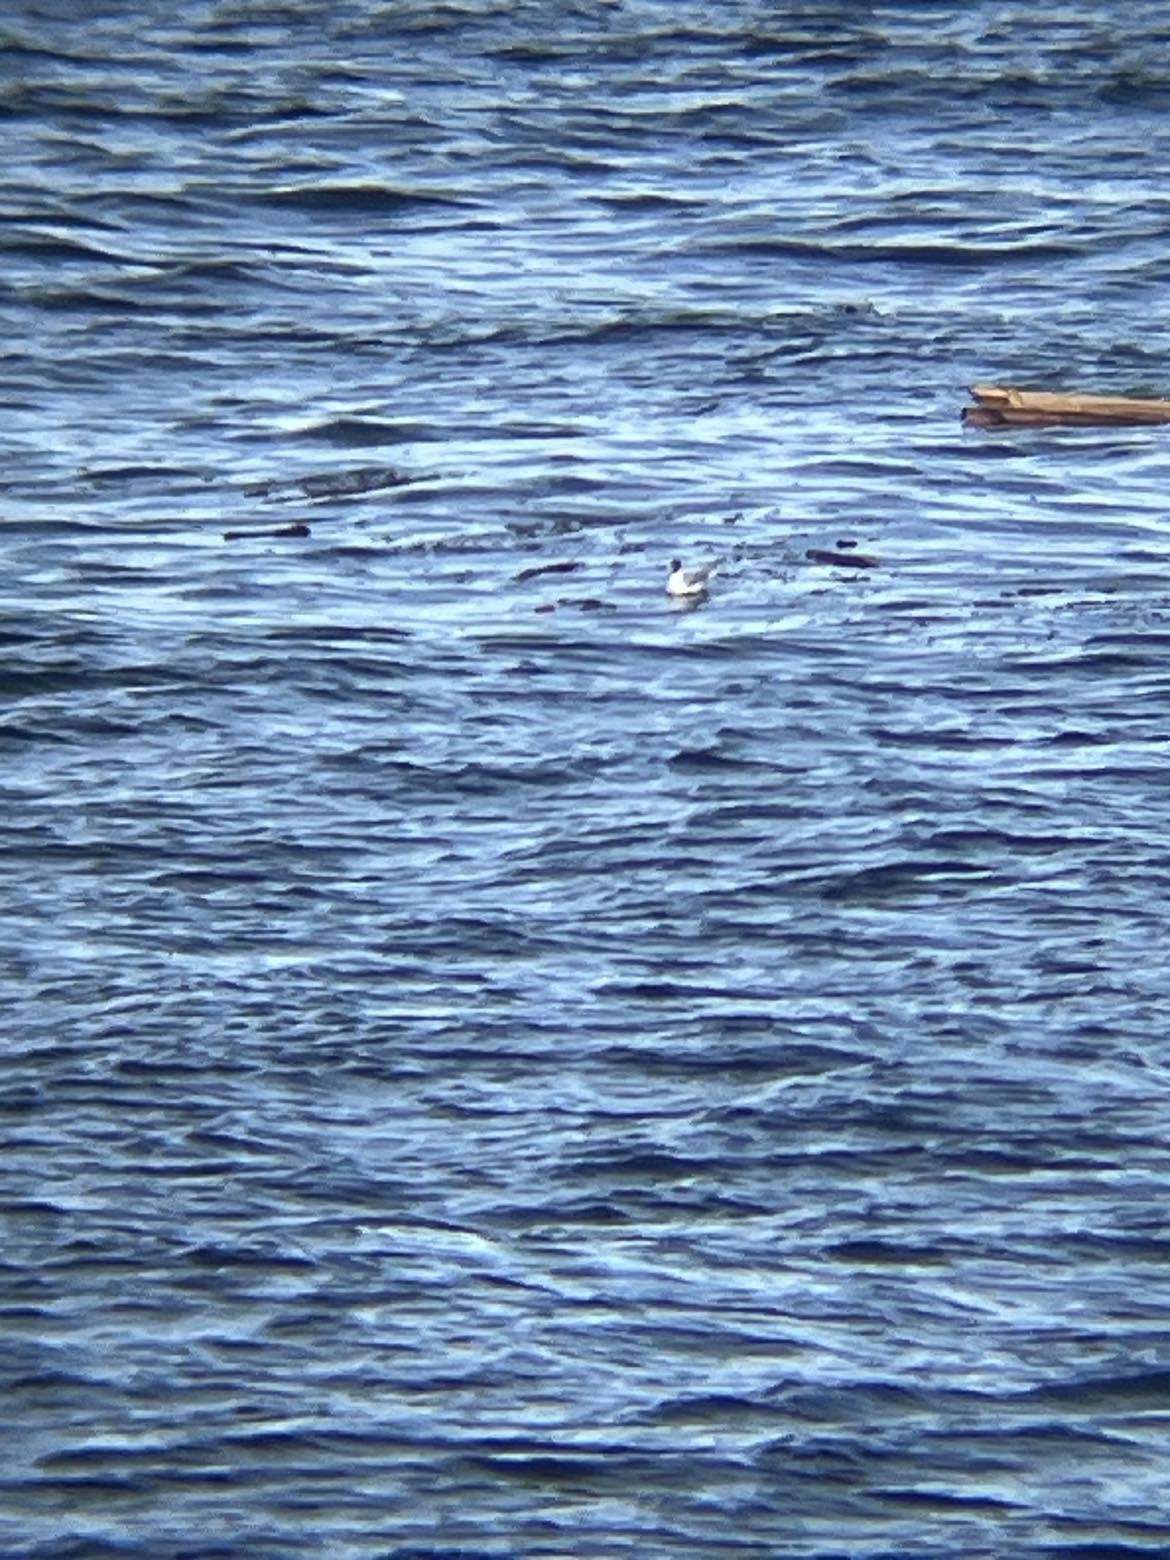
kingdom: Animalia
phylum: Chordata
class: Aves
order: Charadriiformes
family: Laridae
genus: Chroicocephalus
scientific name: Chroicocephalus philadelphia
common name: Bonaparte's gull
